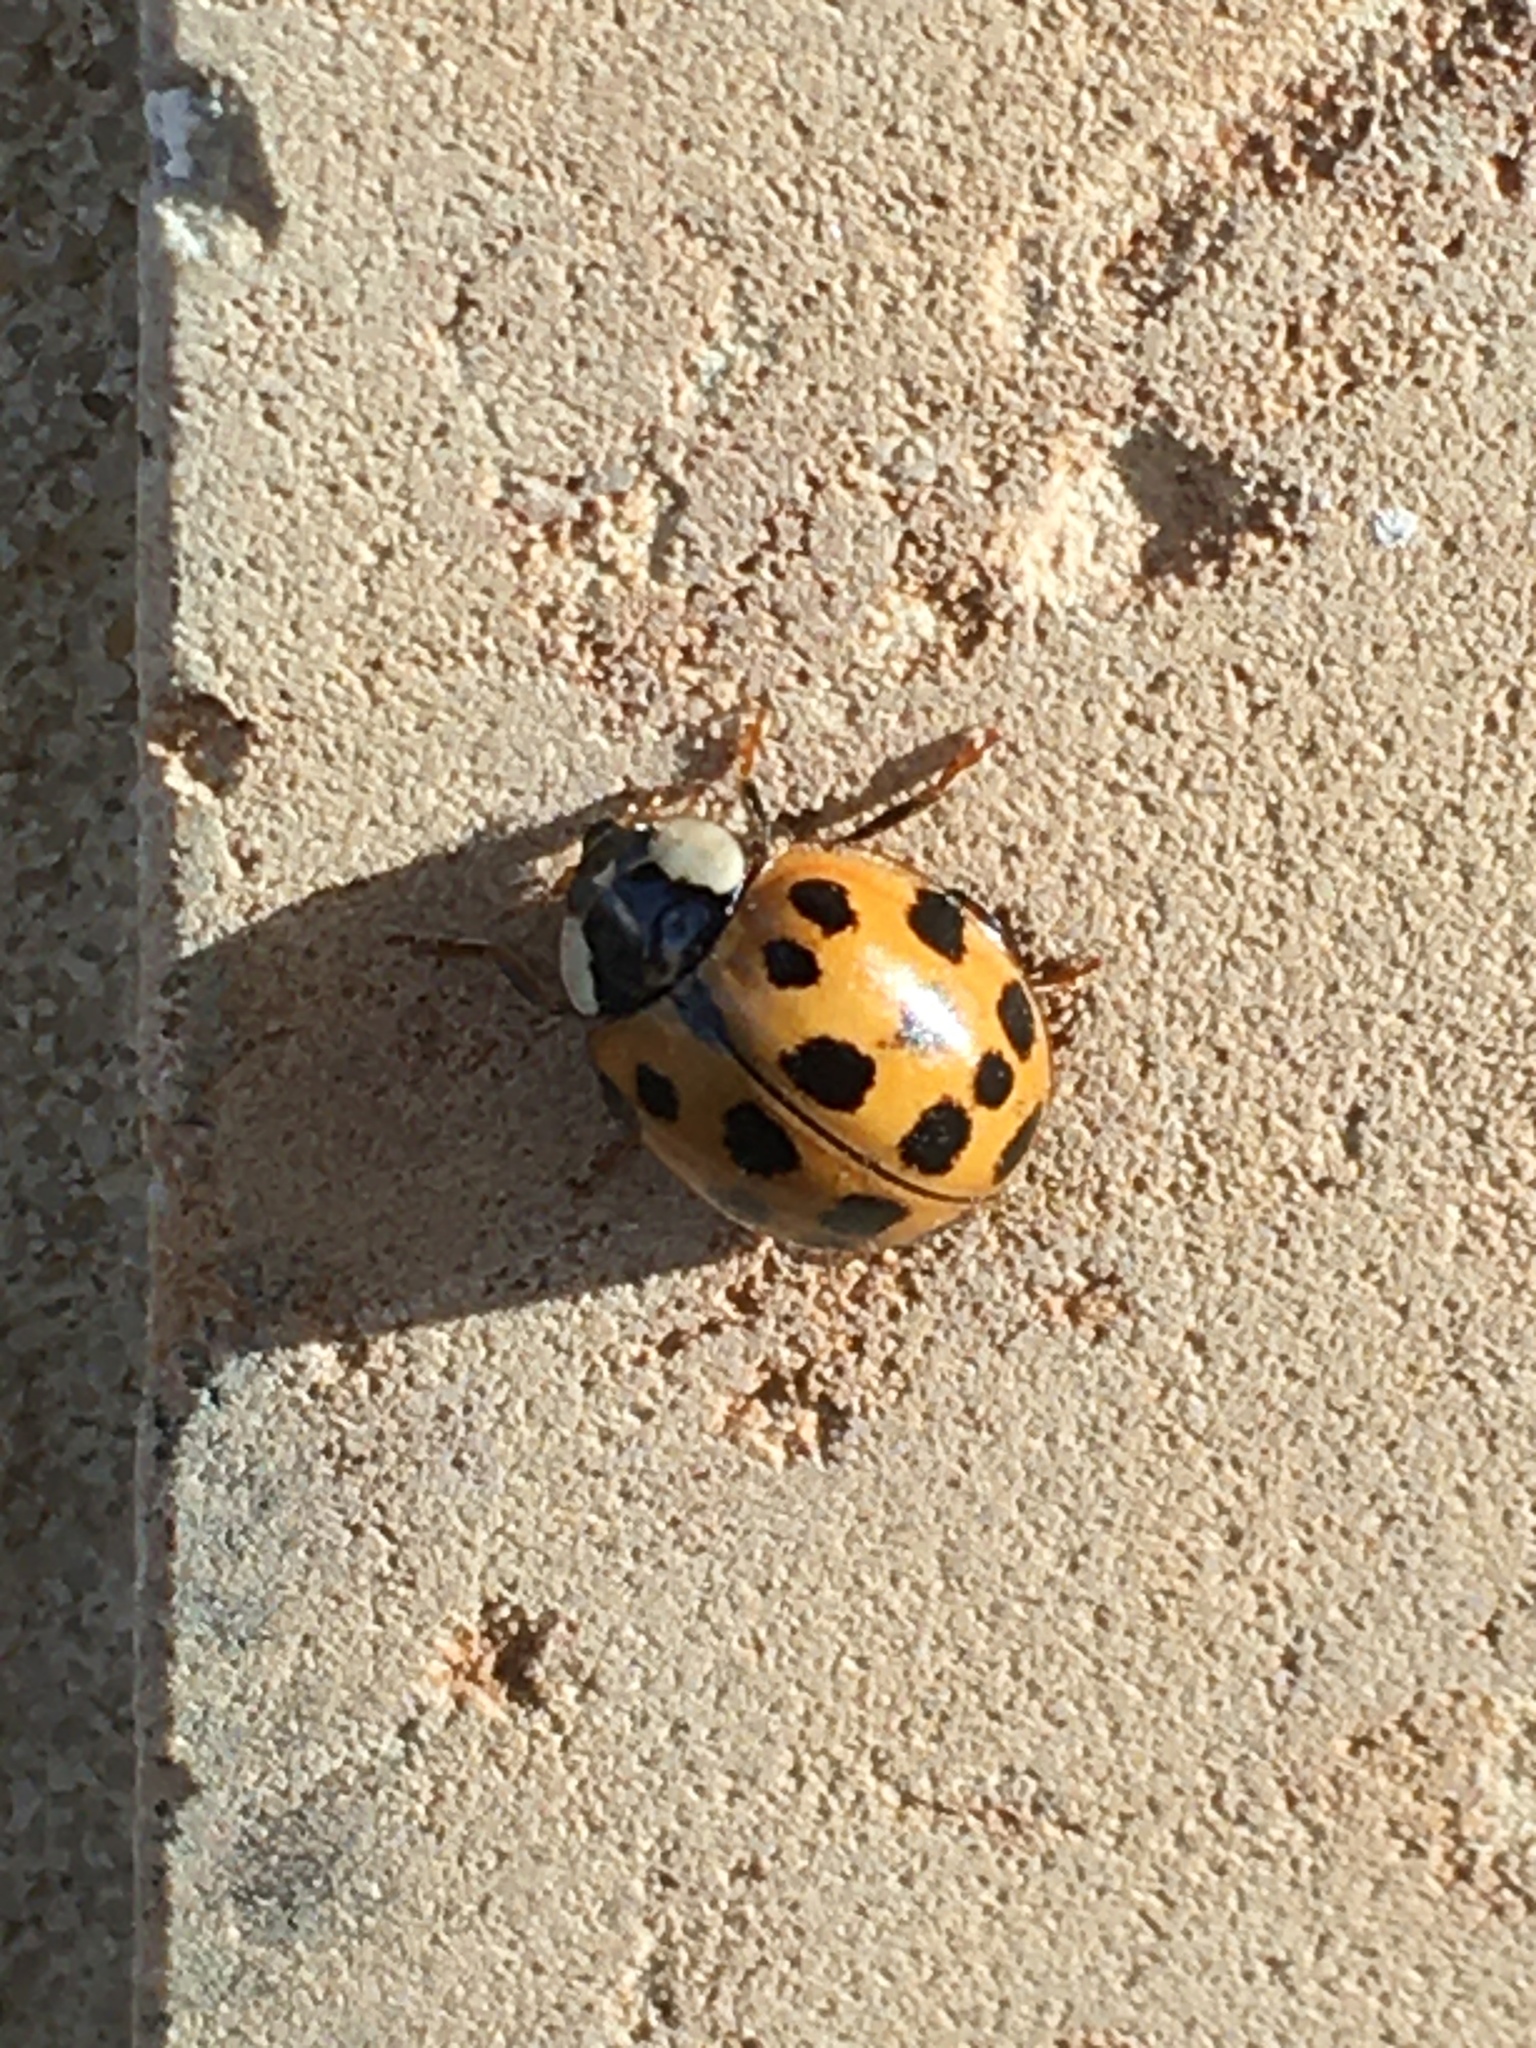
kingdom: Animalia
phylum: Arthropoda
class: Insecta
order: Coleoptera
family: Coccinellidae
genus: Harmonia
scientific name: Harmonia axyridis
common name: Harlequin ladybird
